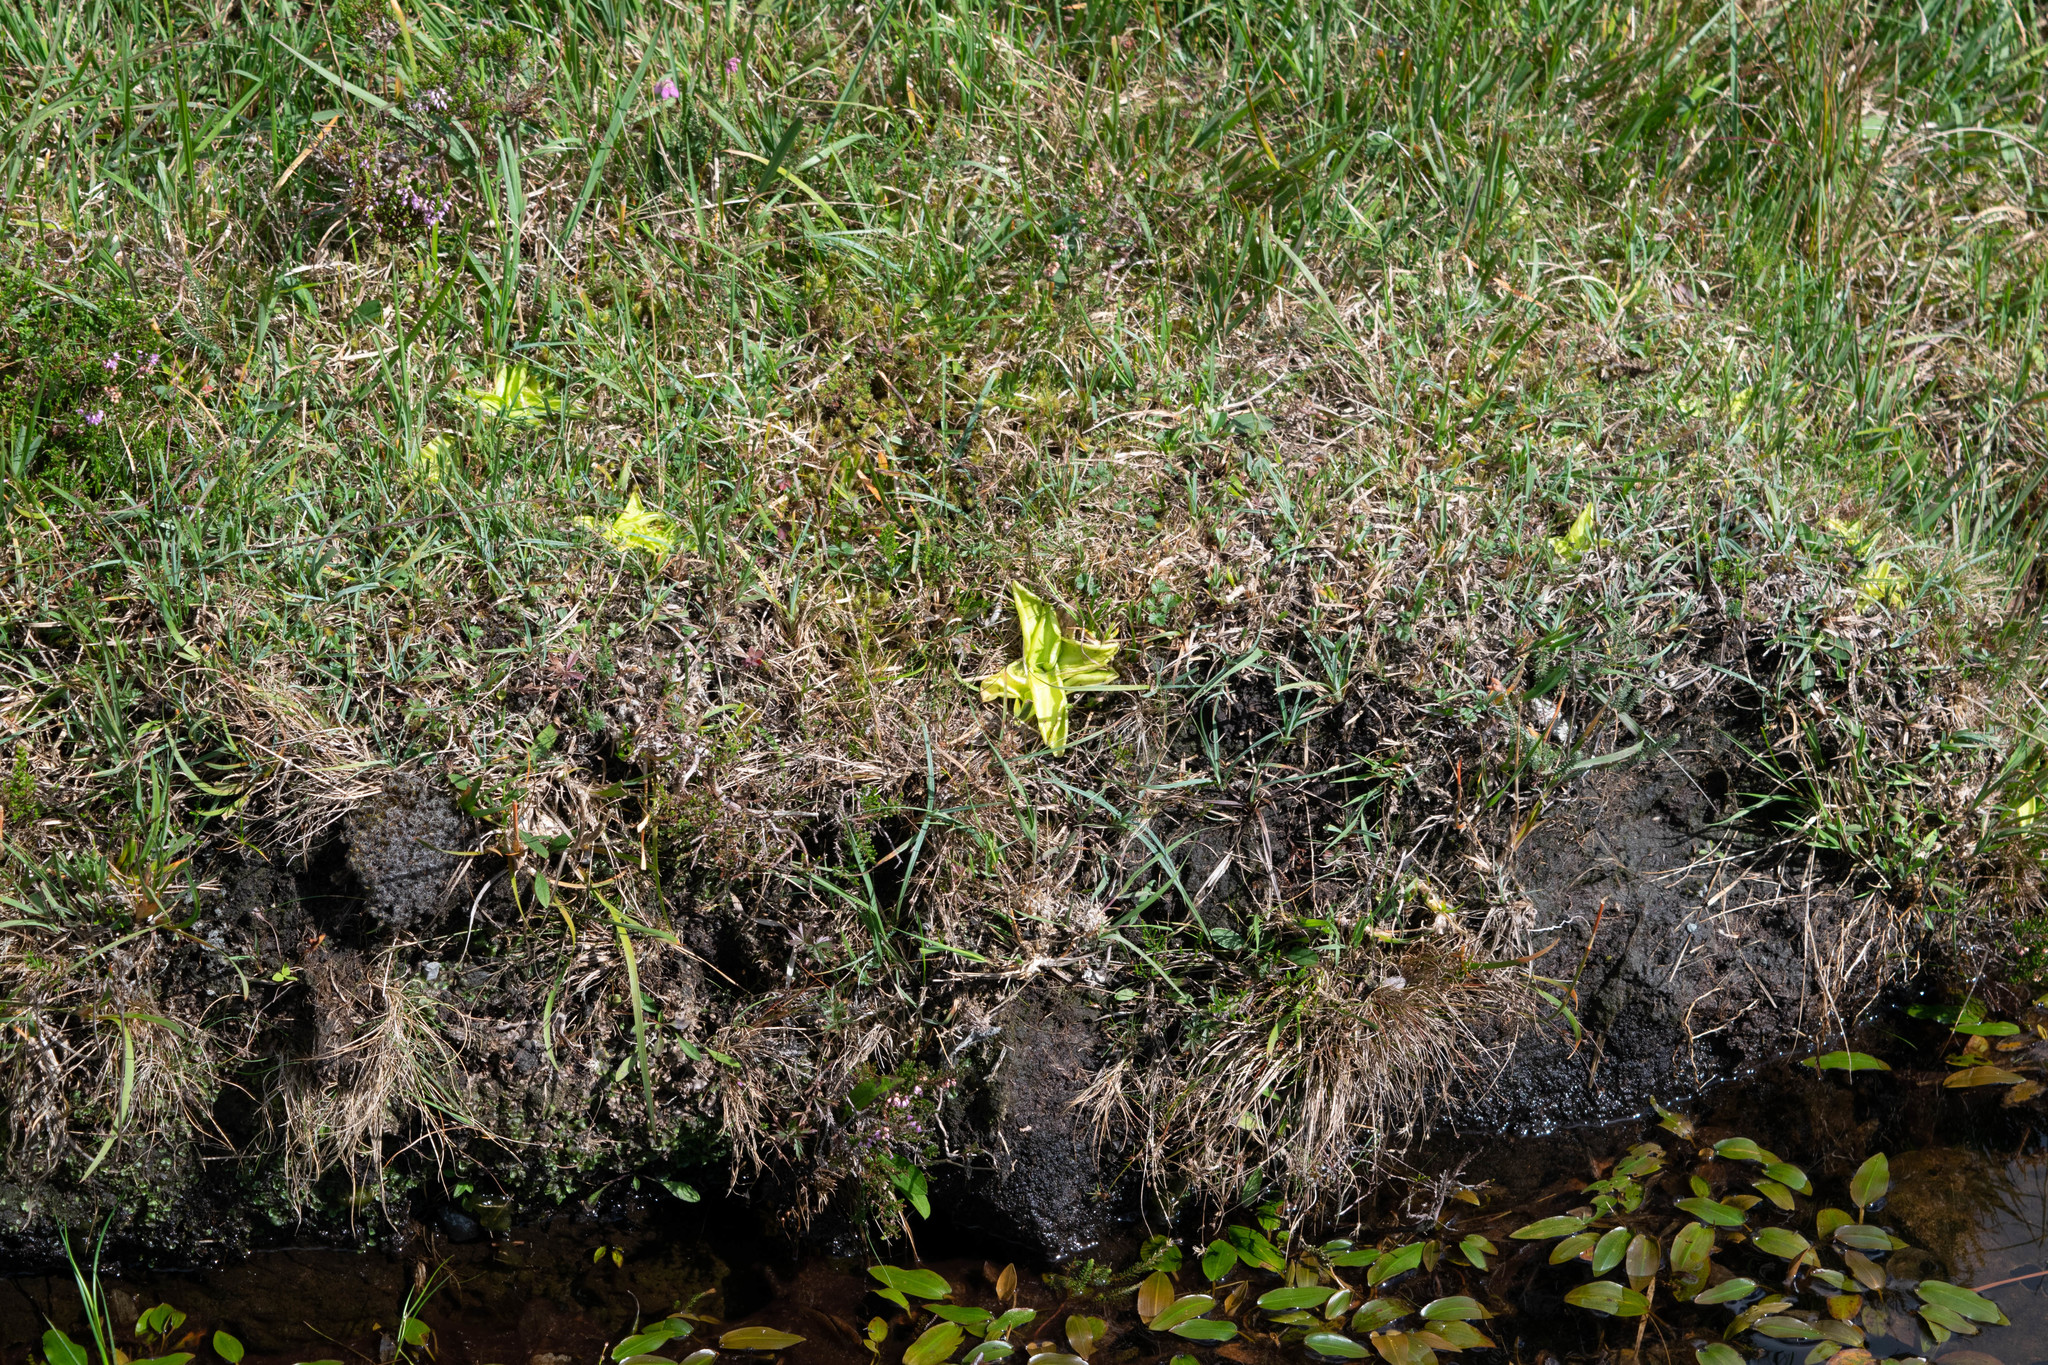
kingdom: Plantae
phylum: Tracheophyta
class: Magnoliopsida
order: Lamiales
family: Lentibulariaceae
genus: Pinguicula
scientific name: Pinguicula vulgaris
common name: Common butterwort
